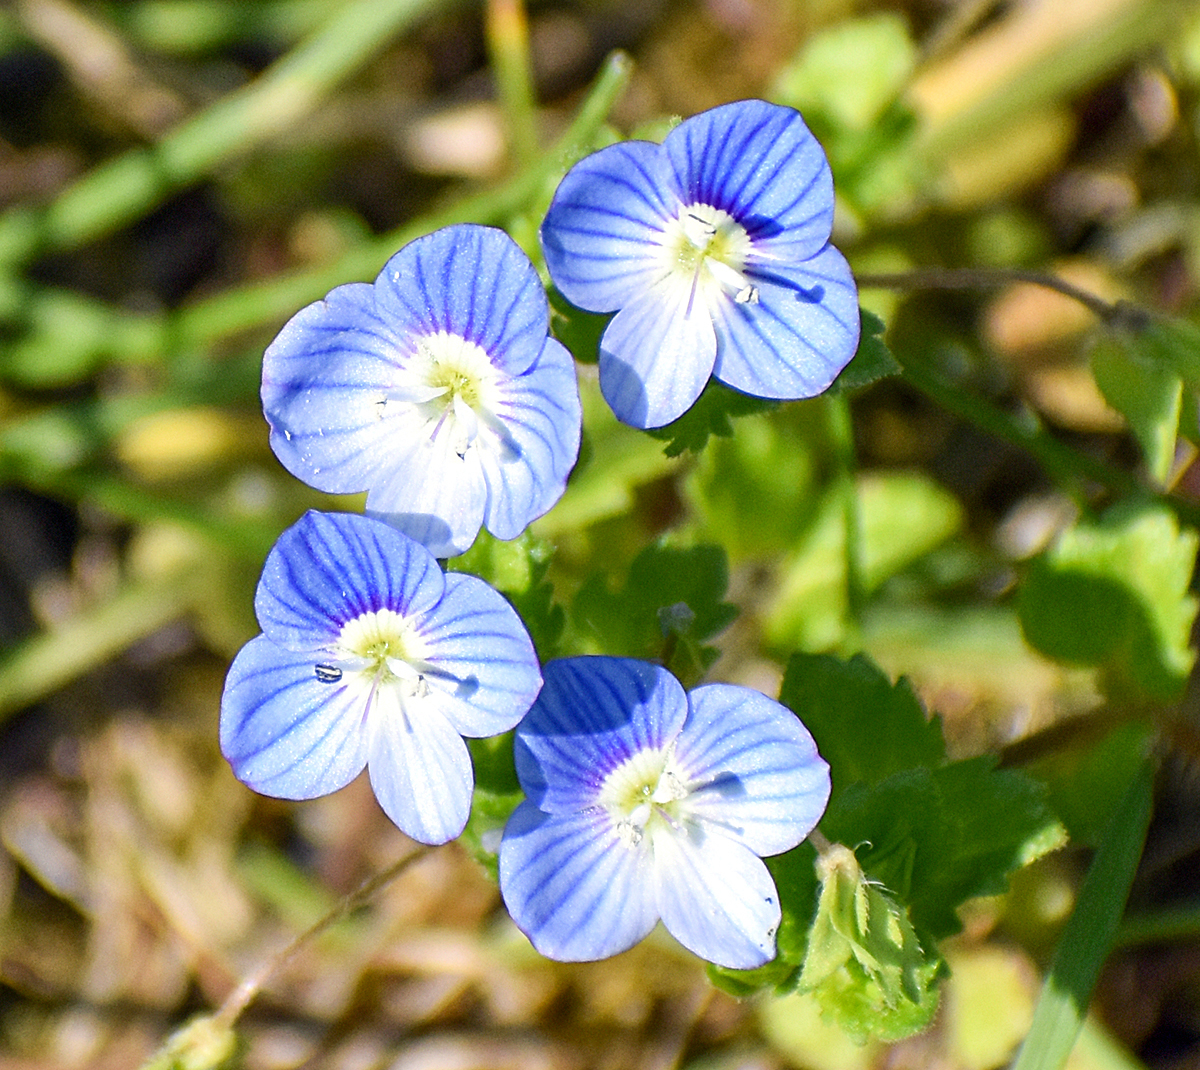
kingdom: Plantae
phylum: Tracheophyta
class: Magnoliopsida
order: Lamiales
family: Plantaginaceae
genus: Veronica
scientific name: Veronica persica
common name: Common field-speedwell
